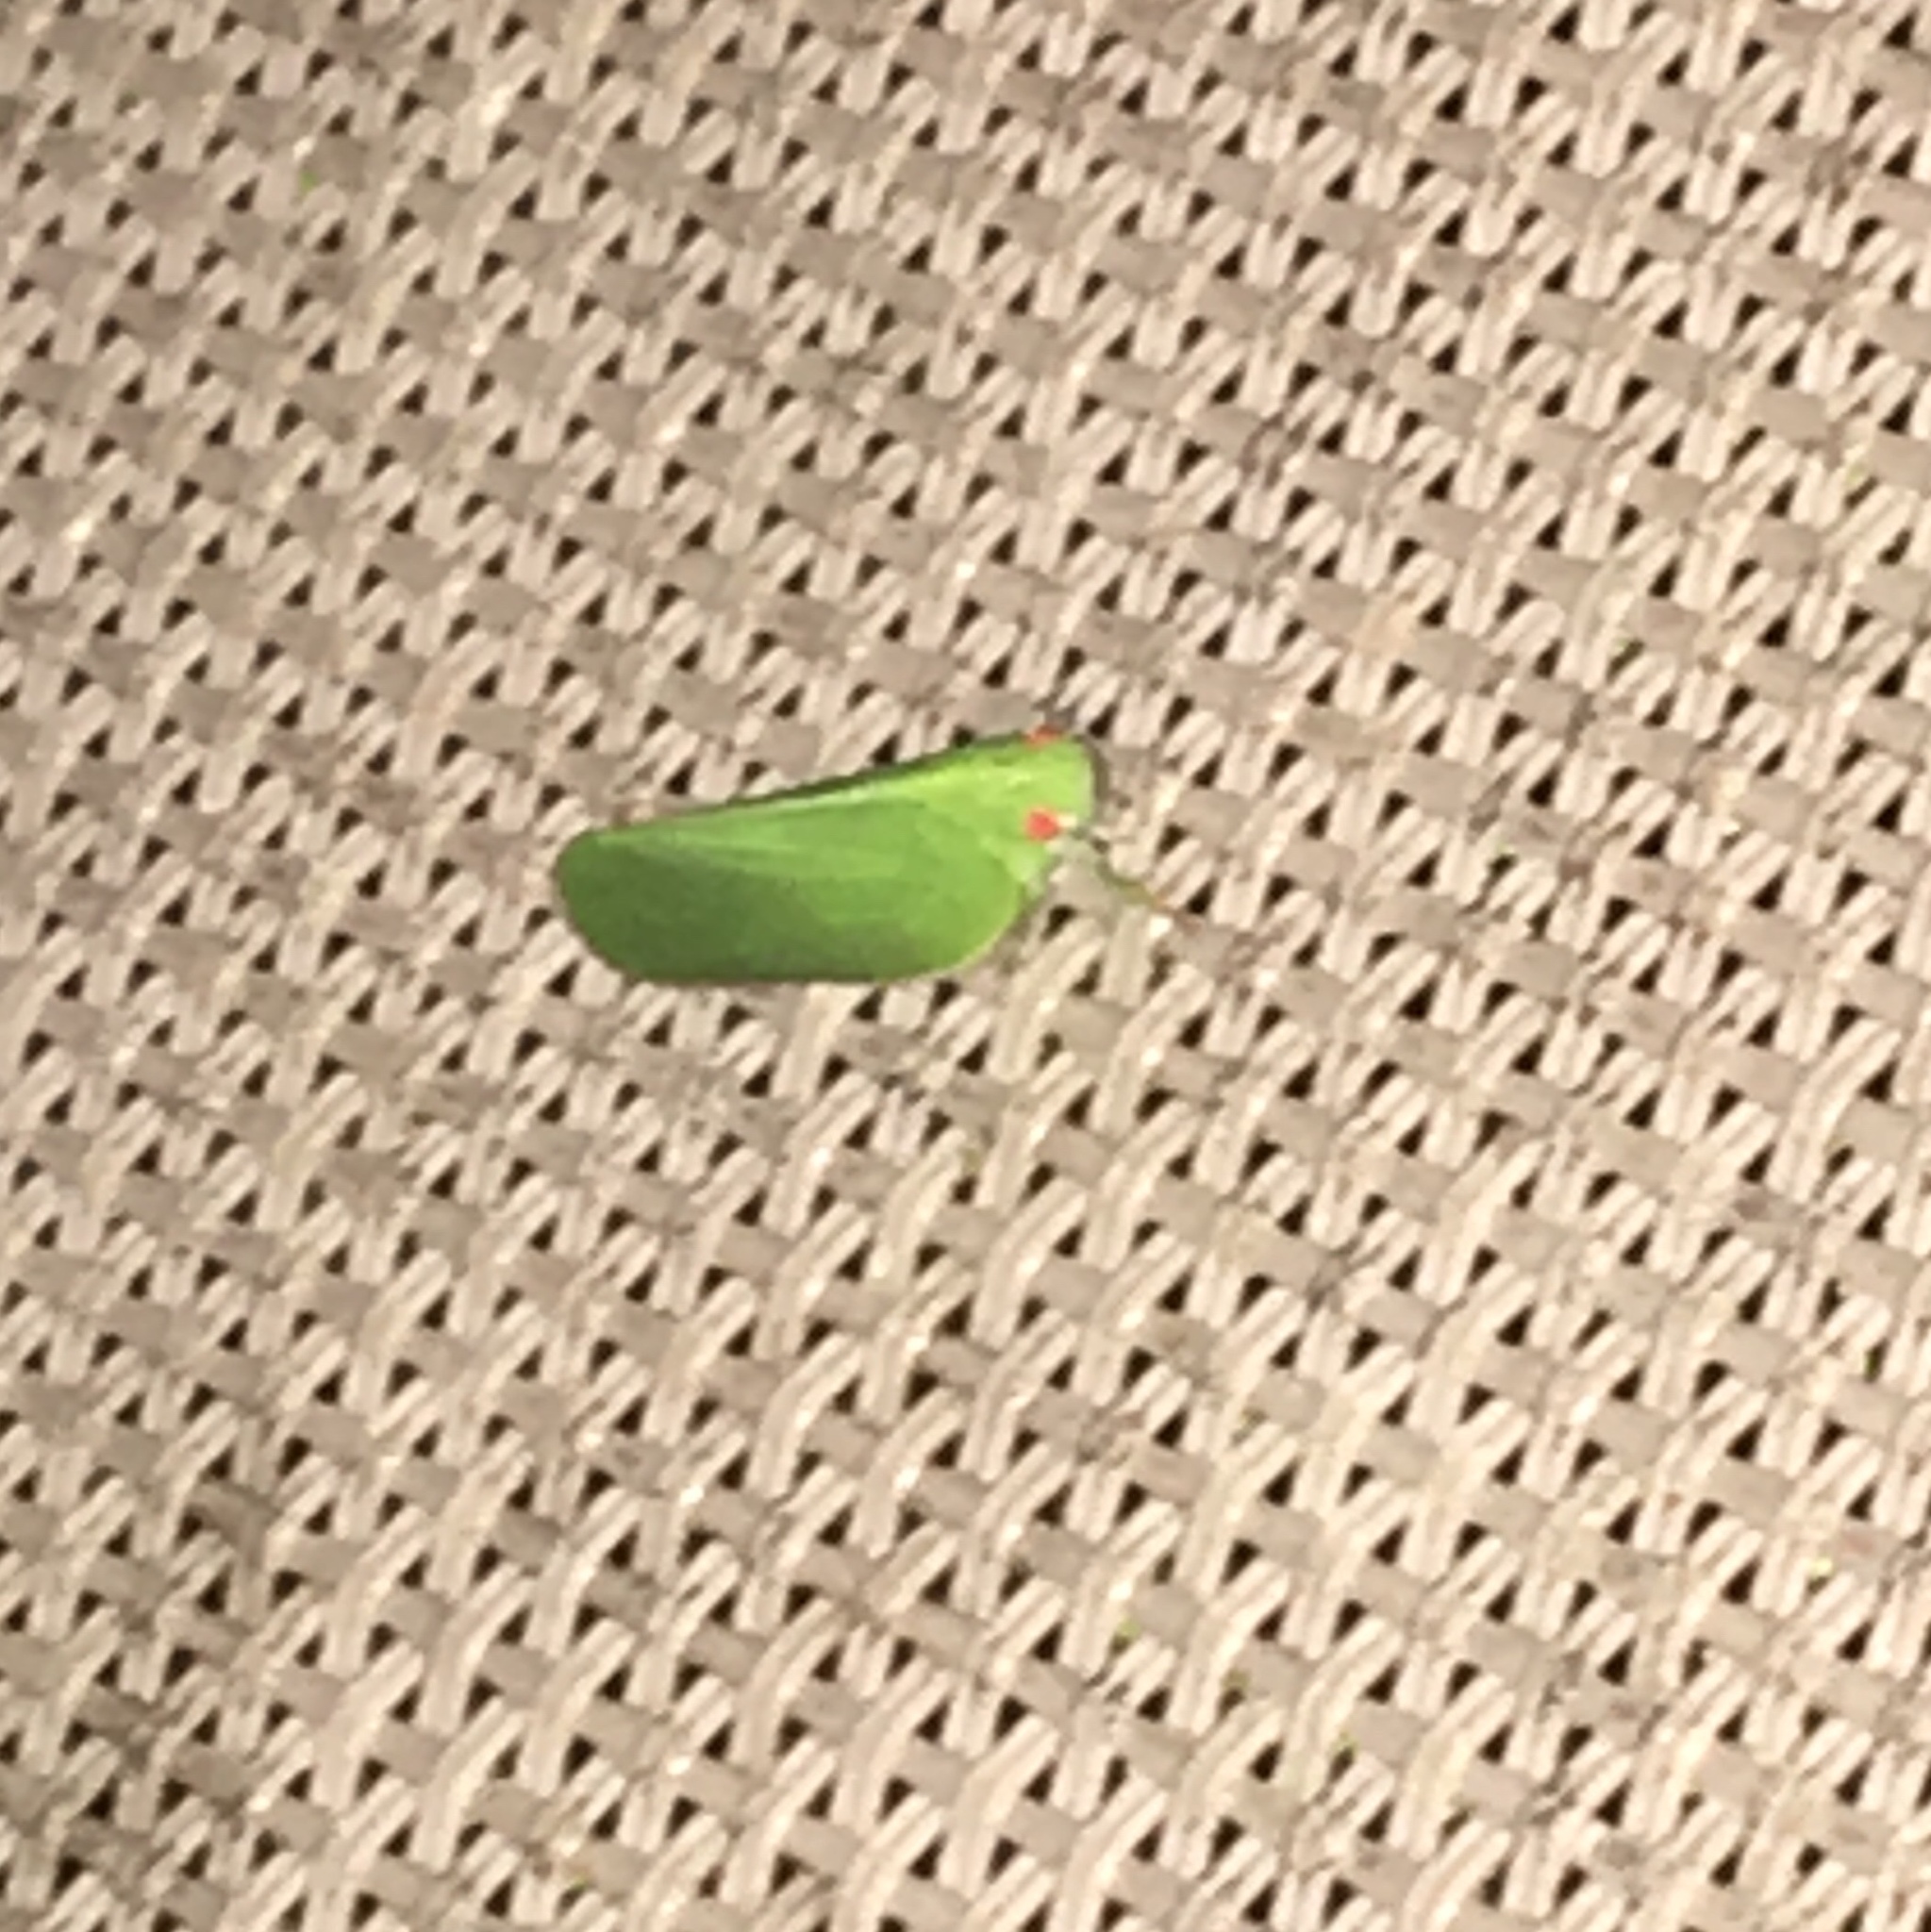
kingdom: Animalia
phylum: Arthropoda
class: Insecta
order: Hemiptera
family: Acanaloniidae
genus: Acanalonia
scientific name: Acanalonia conica
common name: Green cone-headed planthopper
